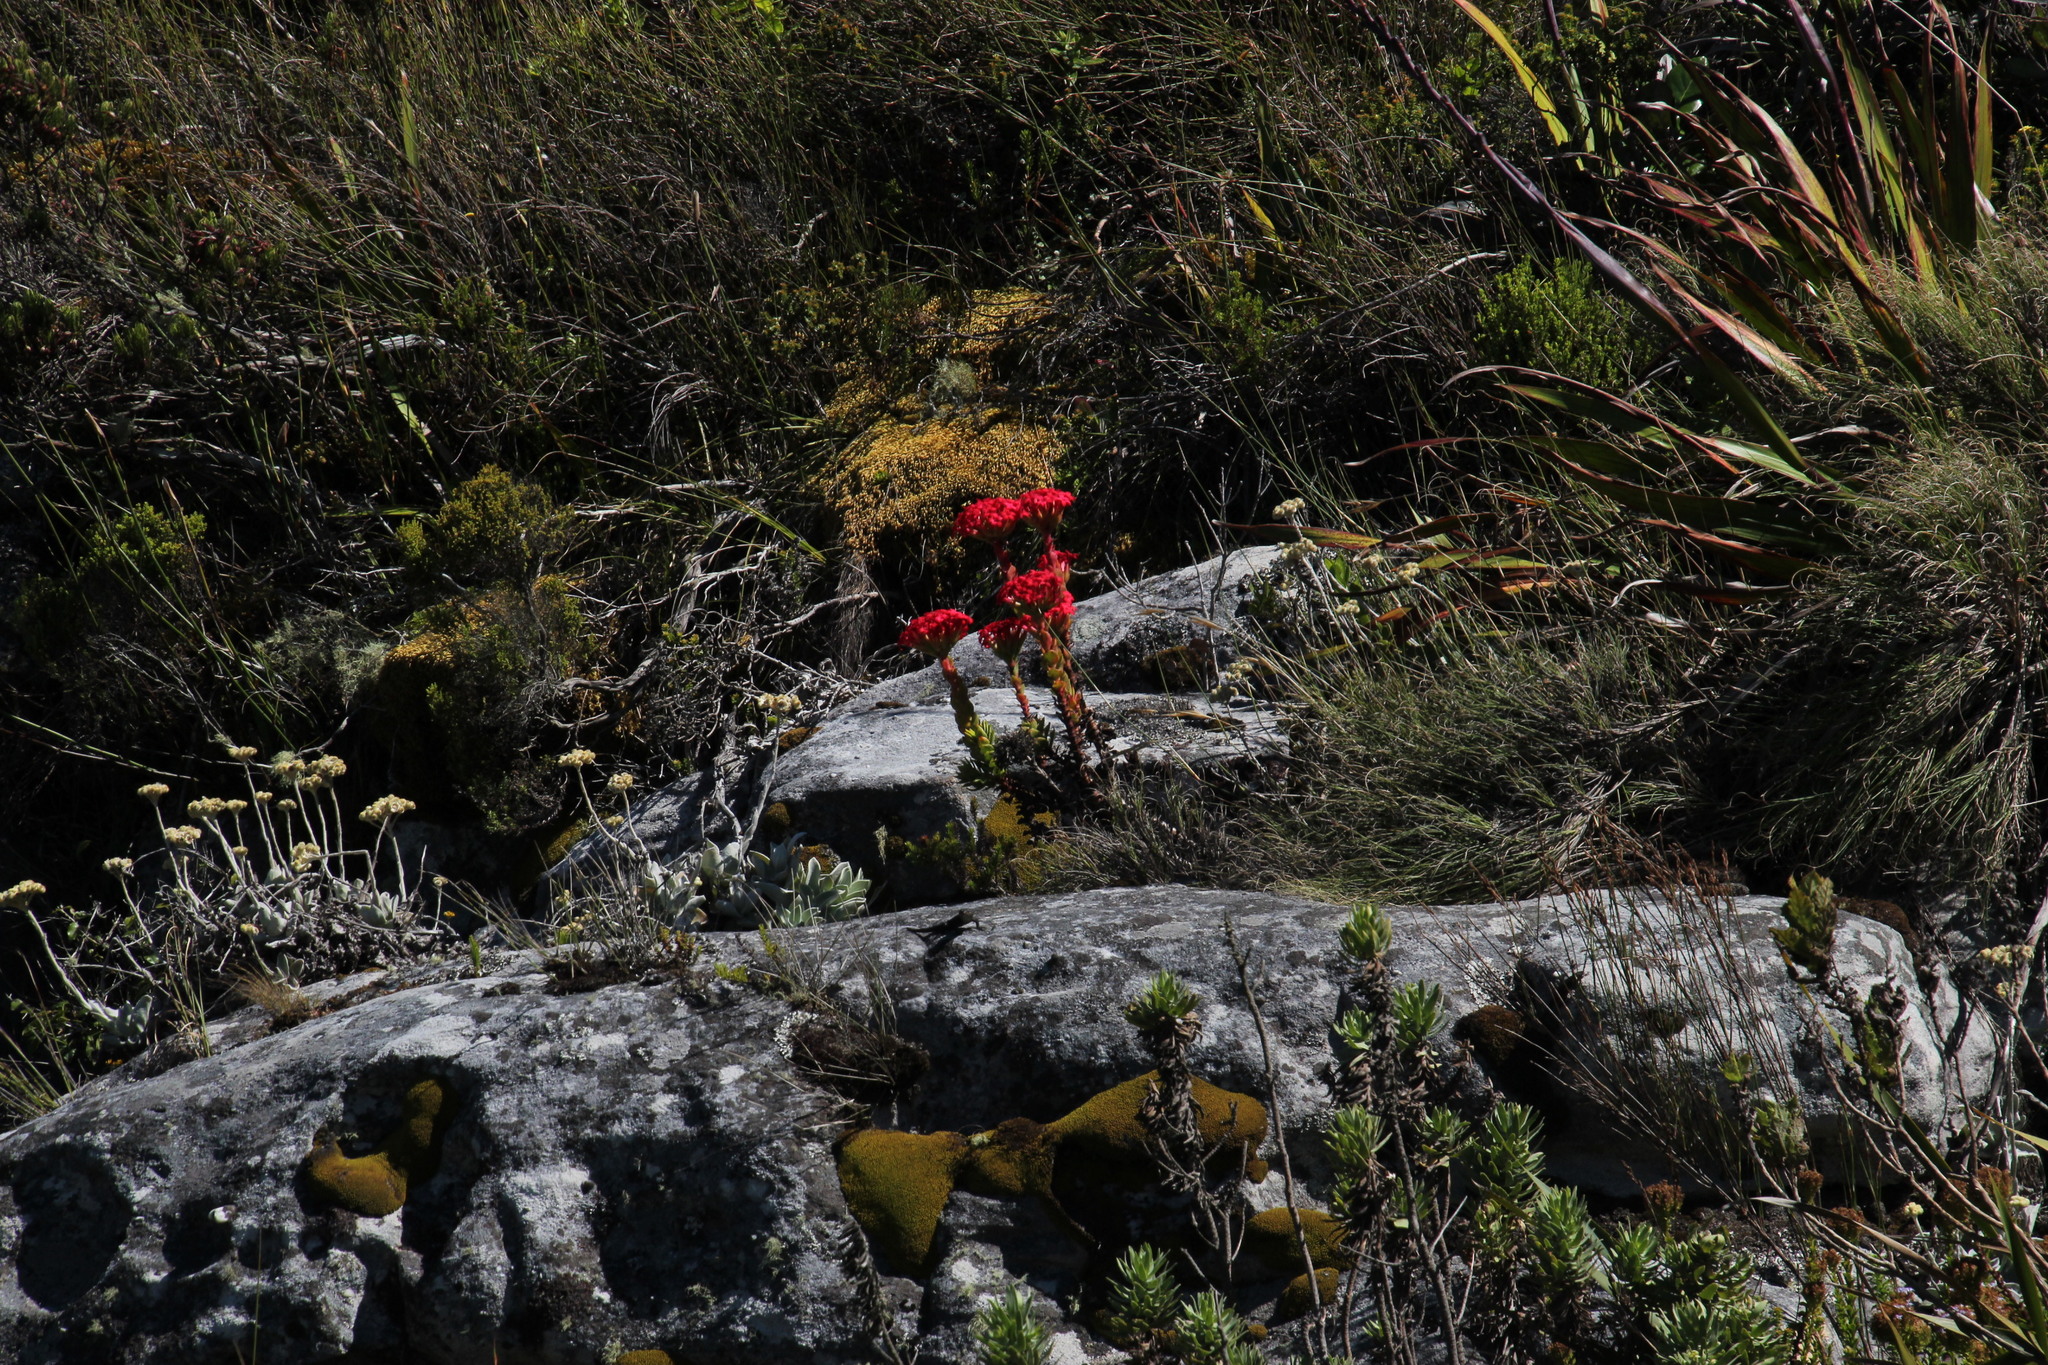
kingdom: Plantae
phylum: Tracheophyta
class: Magnoliopsida
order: Saxifragales
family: Crassulaceae
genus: Crassula
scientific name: Crassula coccinea
